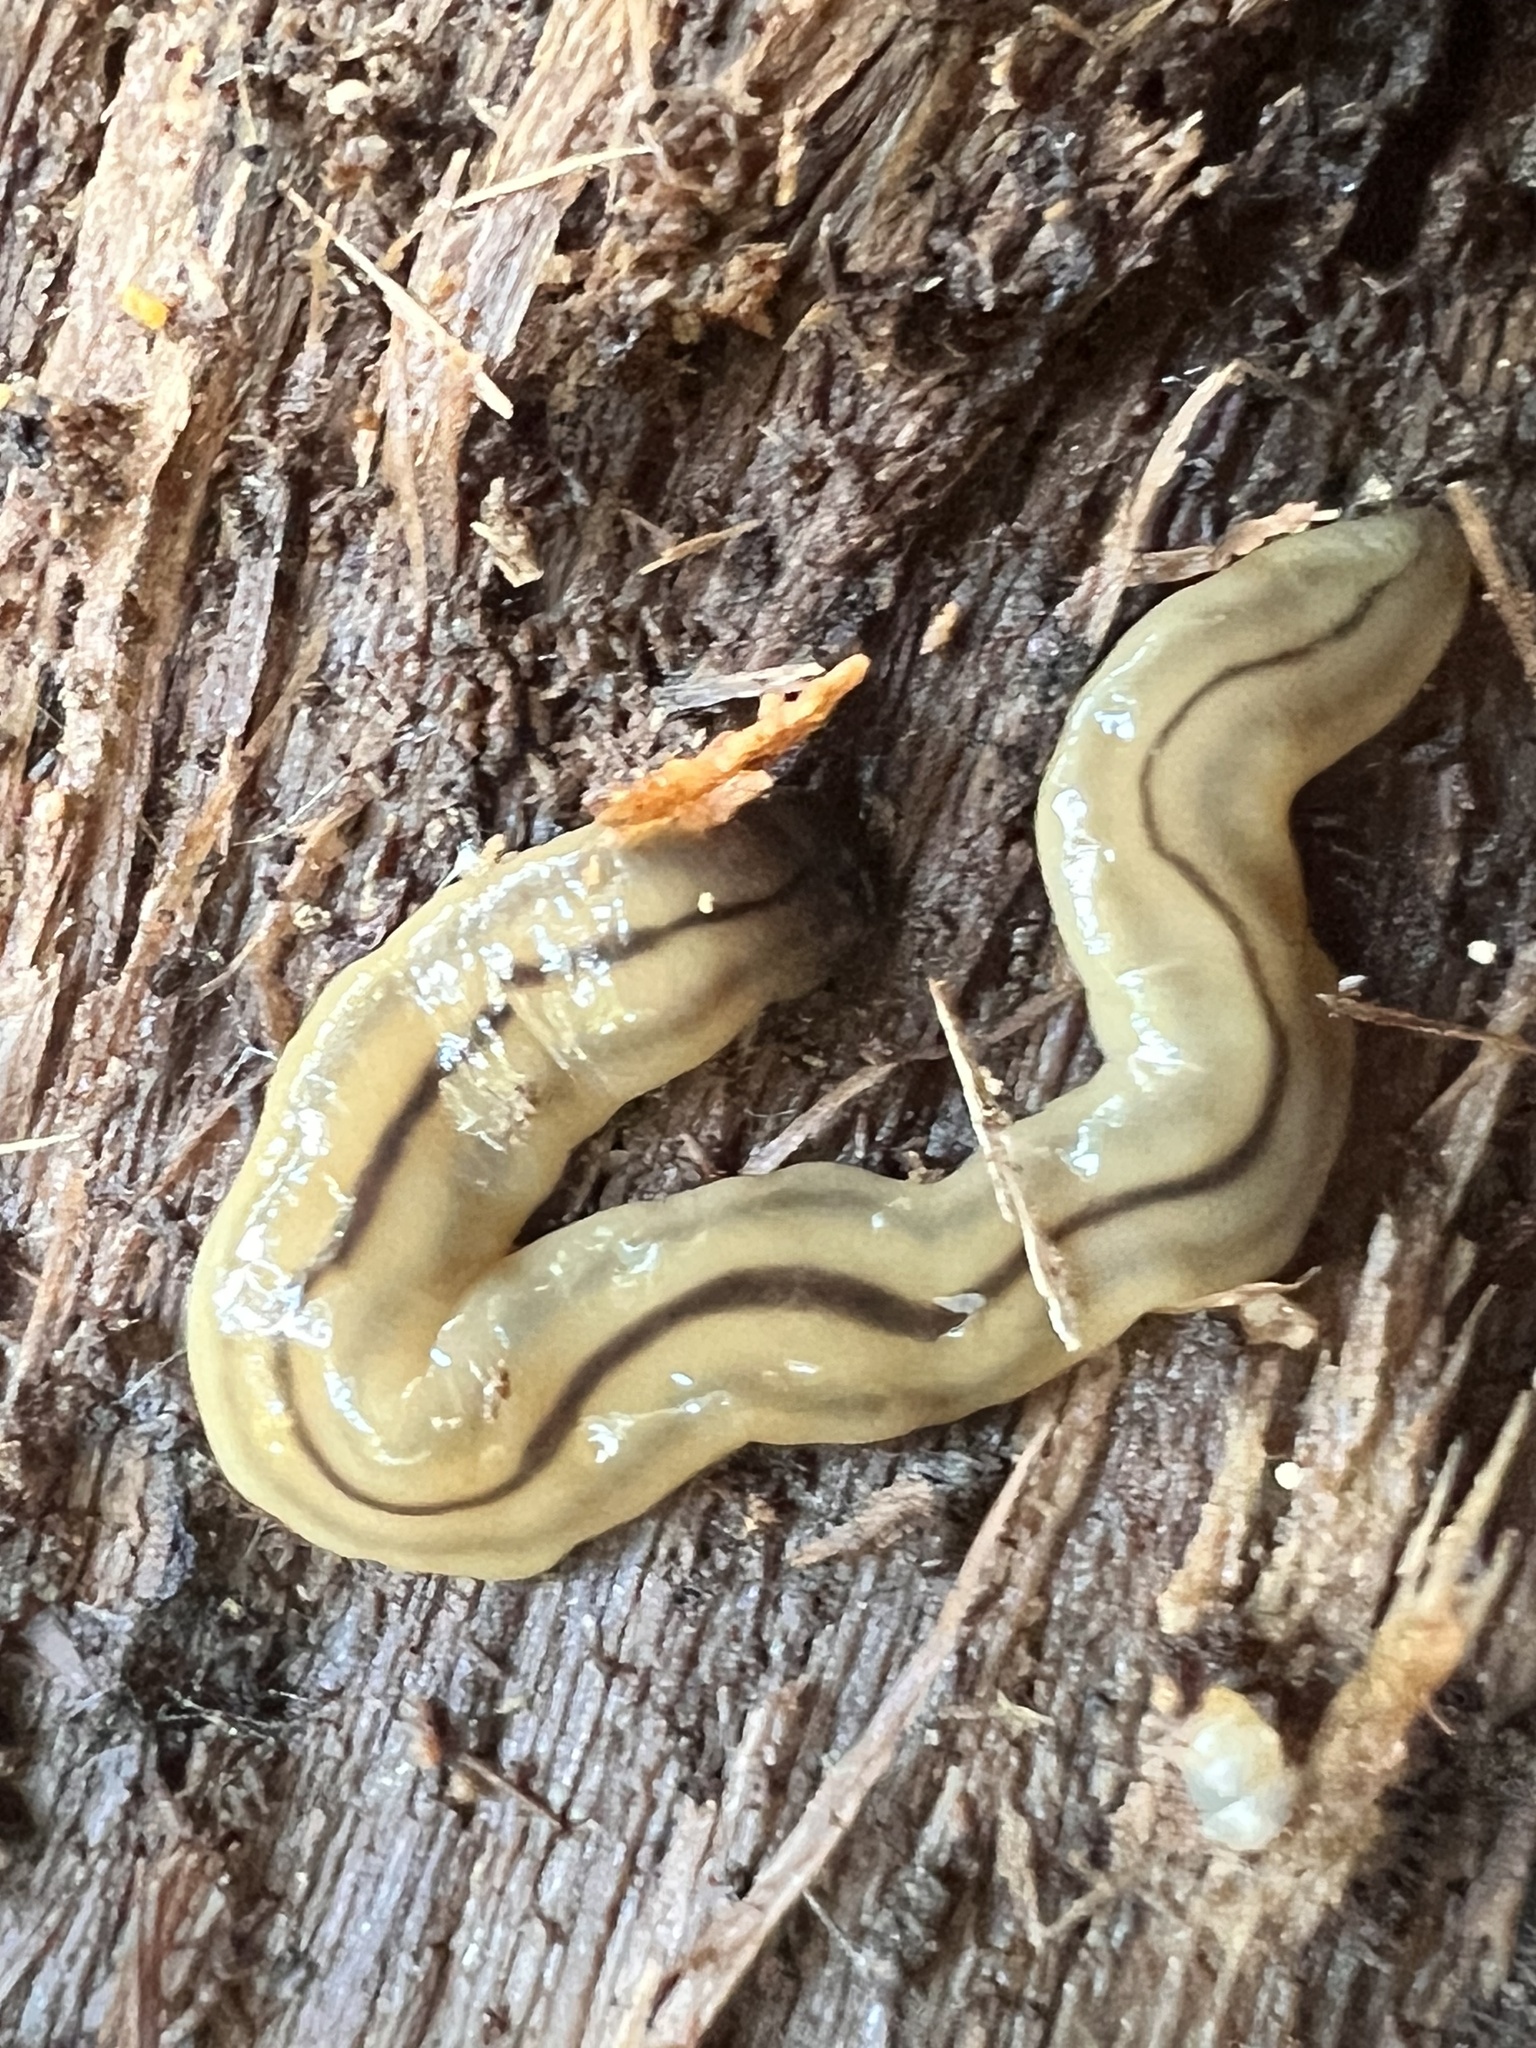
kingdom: Animalia
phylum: Platyhelminthes
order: Tricladida
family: Geoplanidae
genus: Bipalium
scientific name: Bipalium pennsylvanicum
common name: Three-lined land planarian
